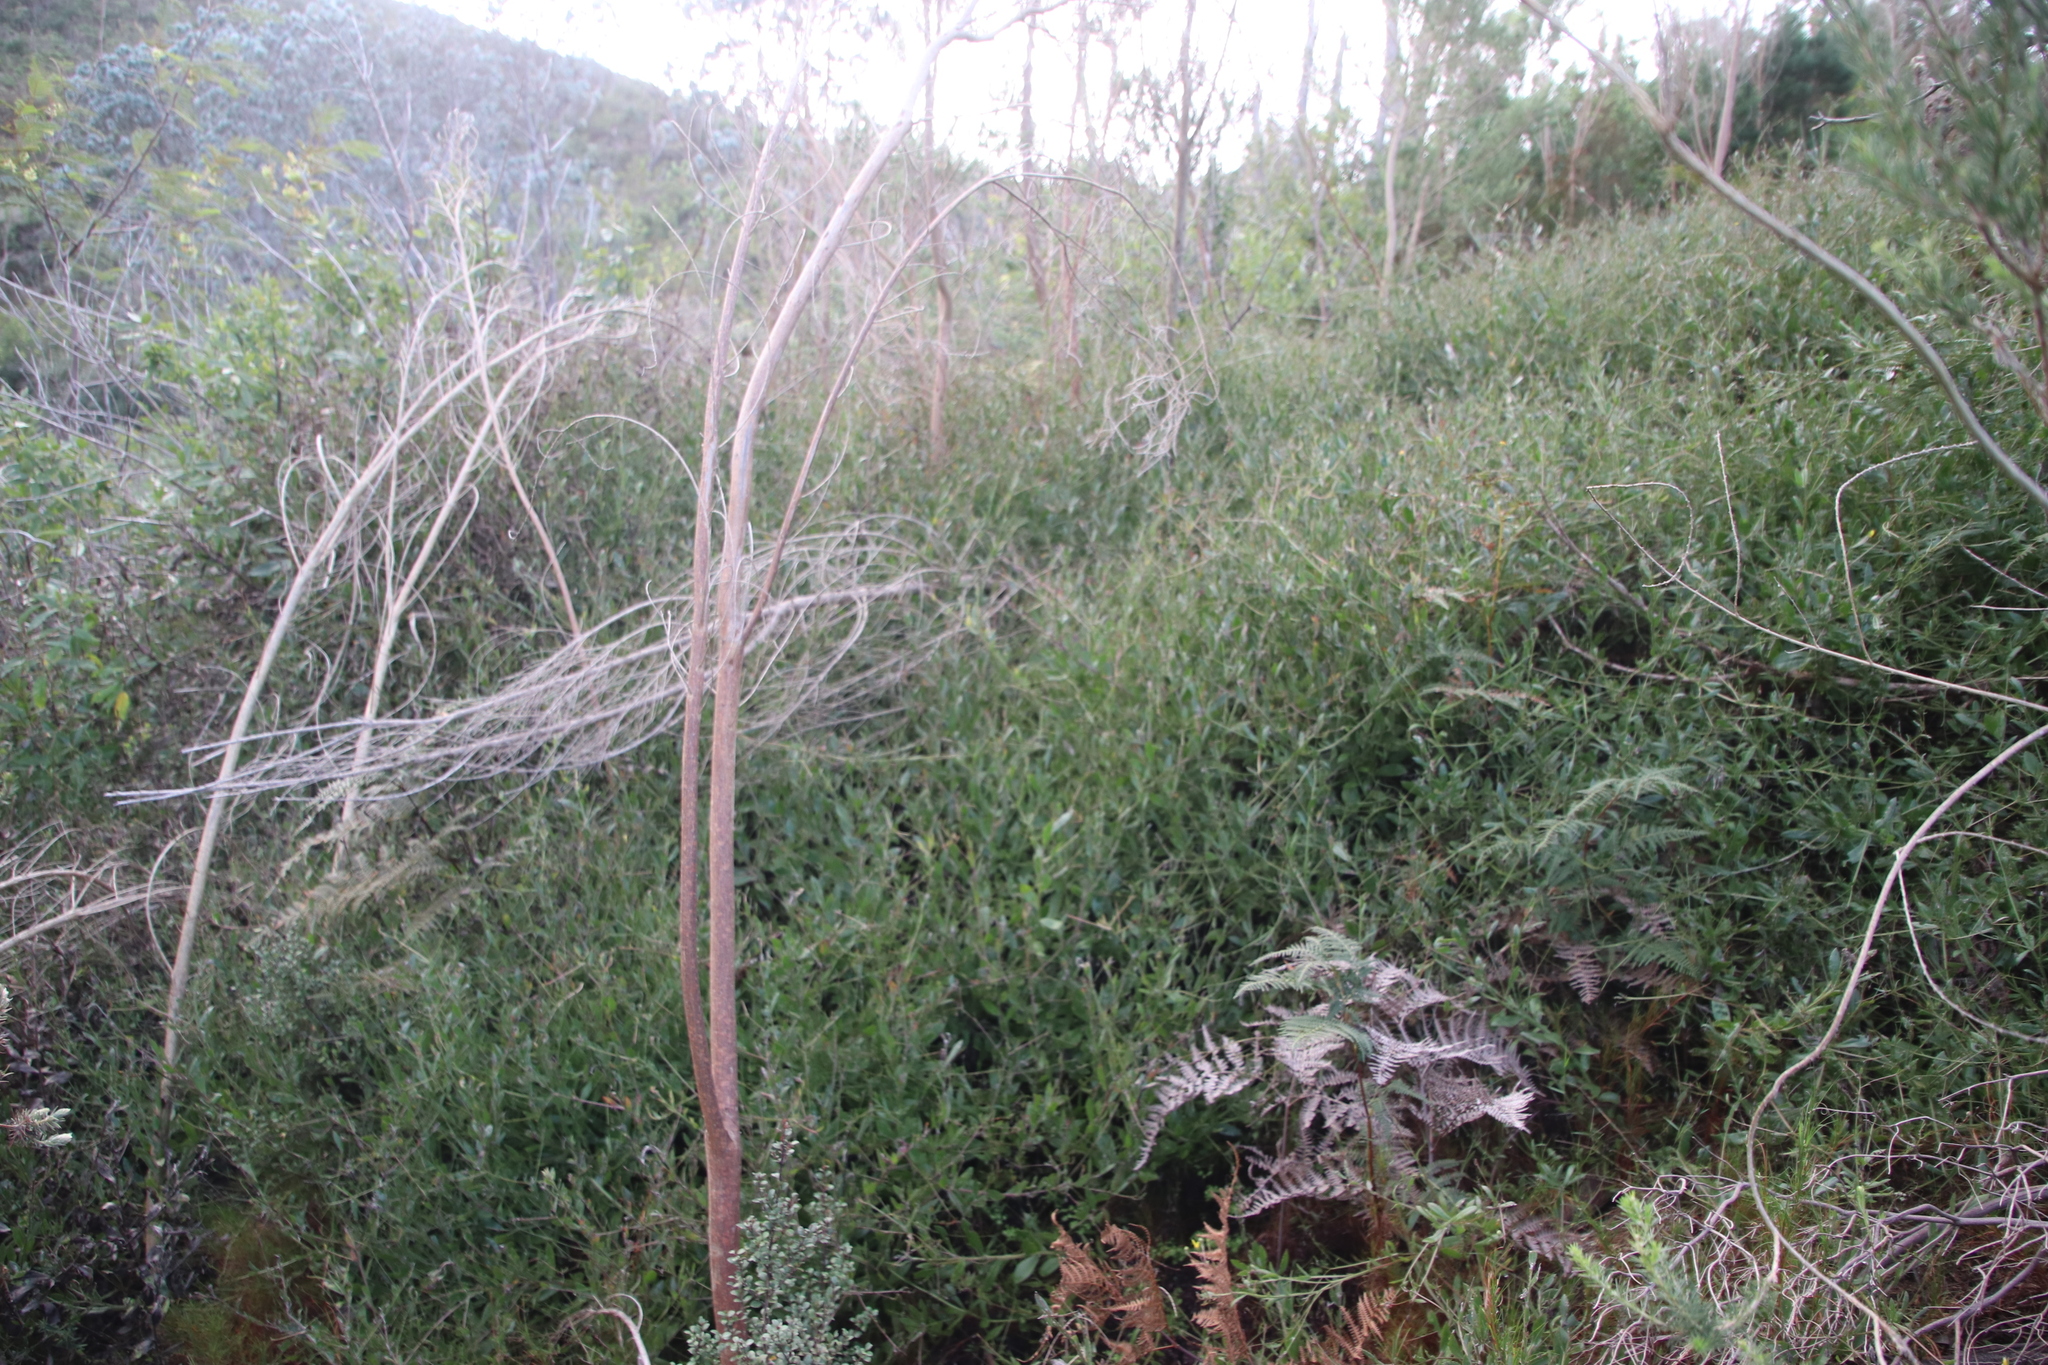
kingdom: Plantae
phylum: Tracheophyta
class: Magnoliopsida
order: Asterales
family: Asteraceae
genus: Osteospermum
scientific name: Osteospermum ciliatum
